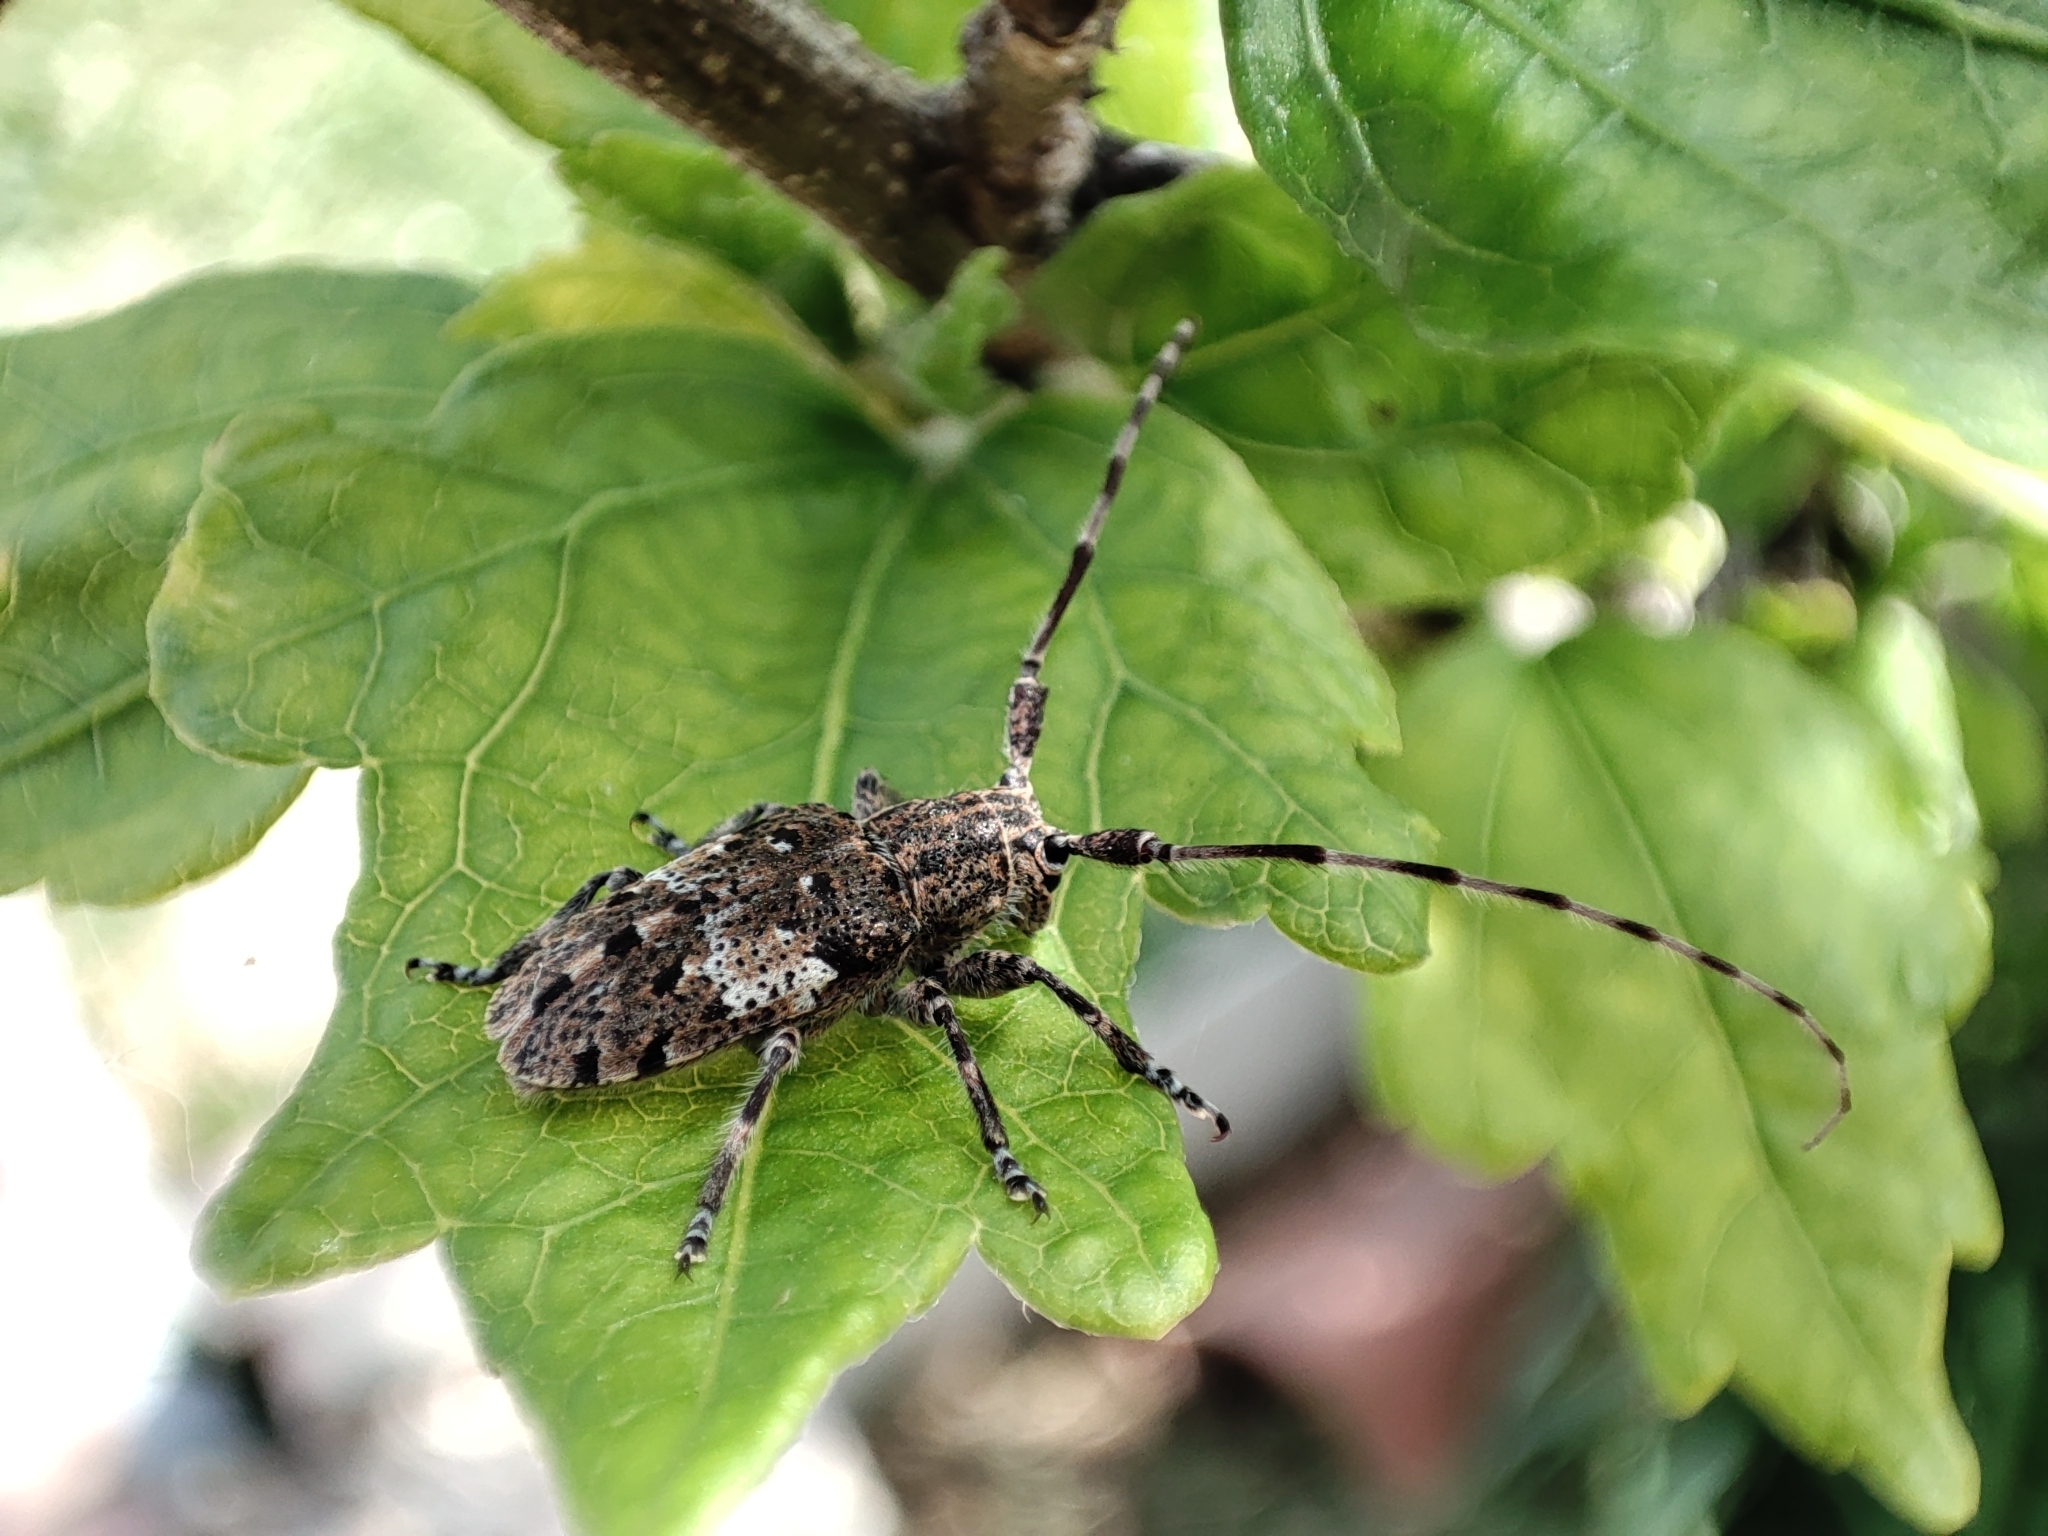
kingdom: Animalia
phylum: Arthropoda
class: Insecta
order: Coleoptera
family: Cerambycidae
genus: Mesosa
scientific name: Mesosa nebulosa
